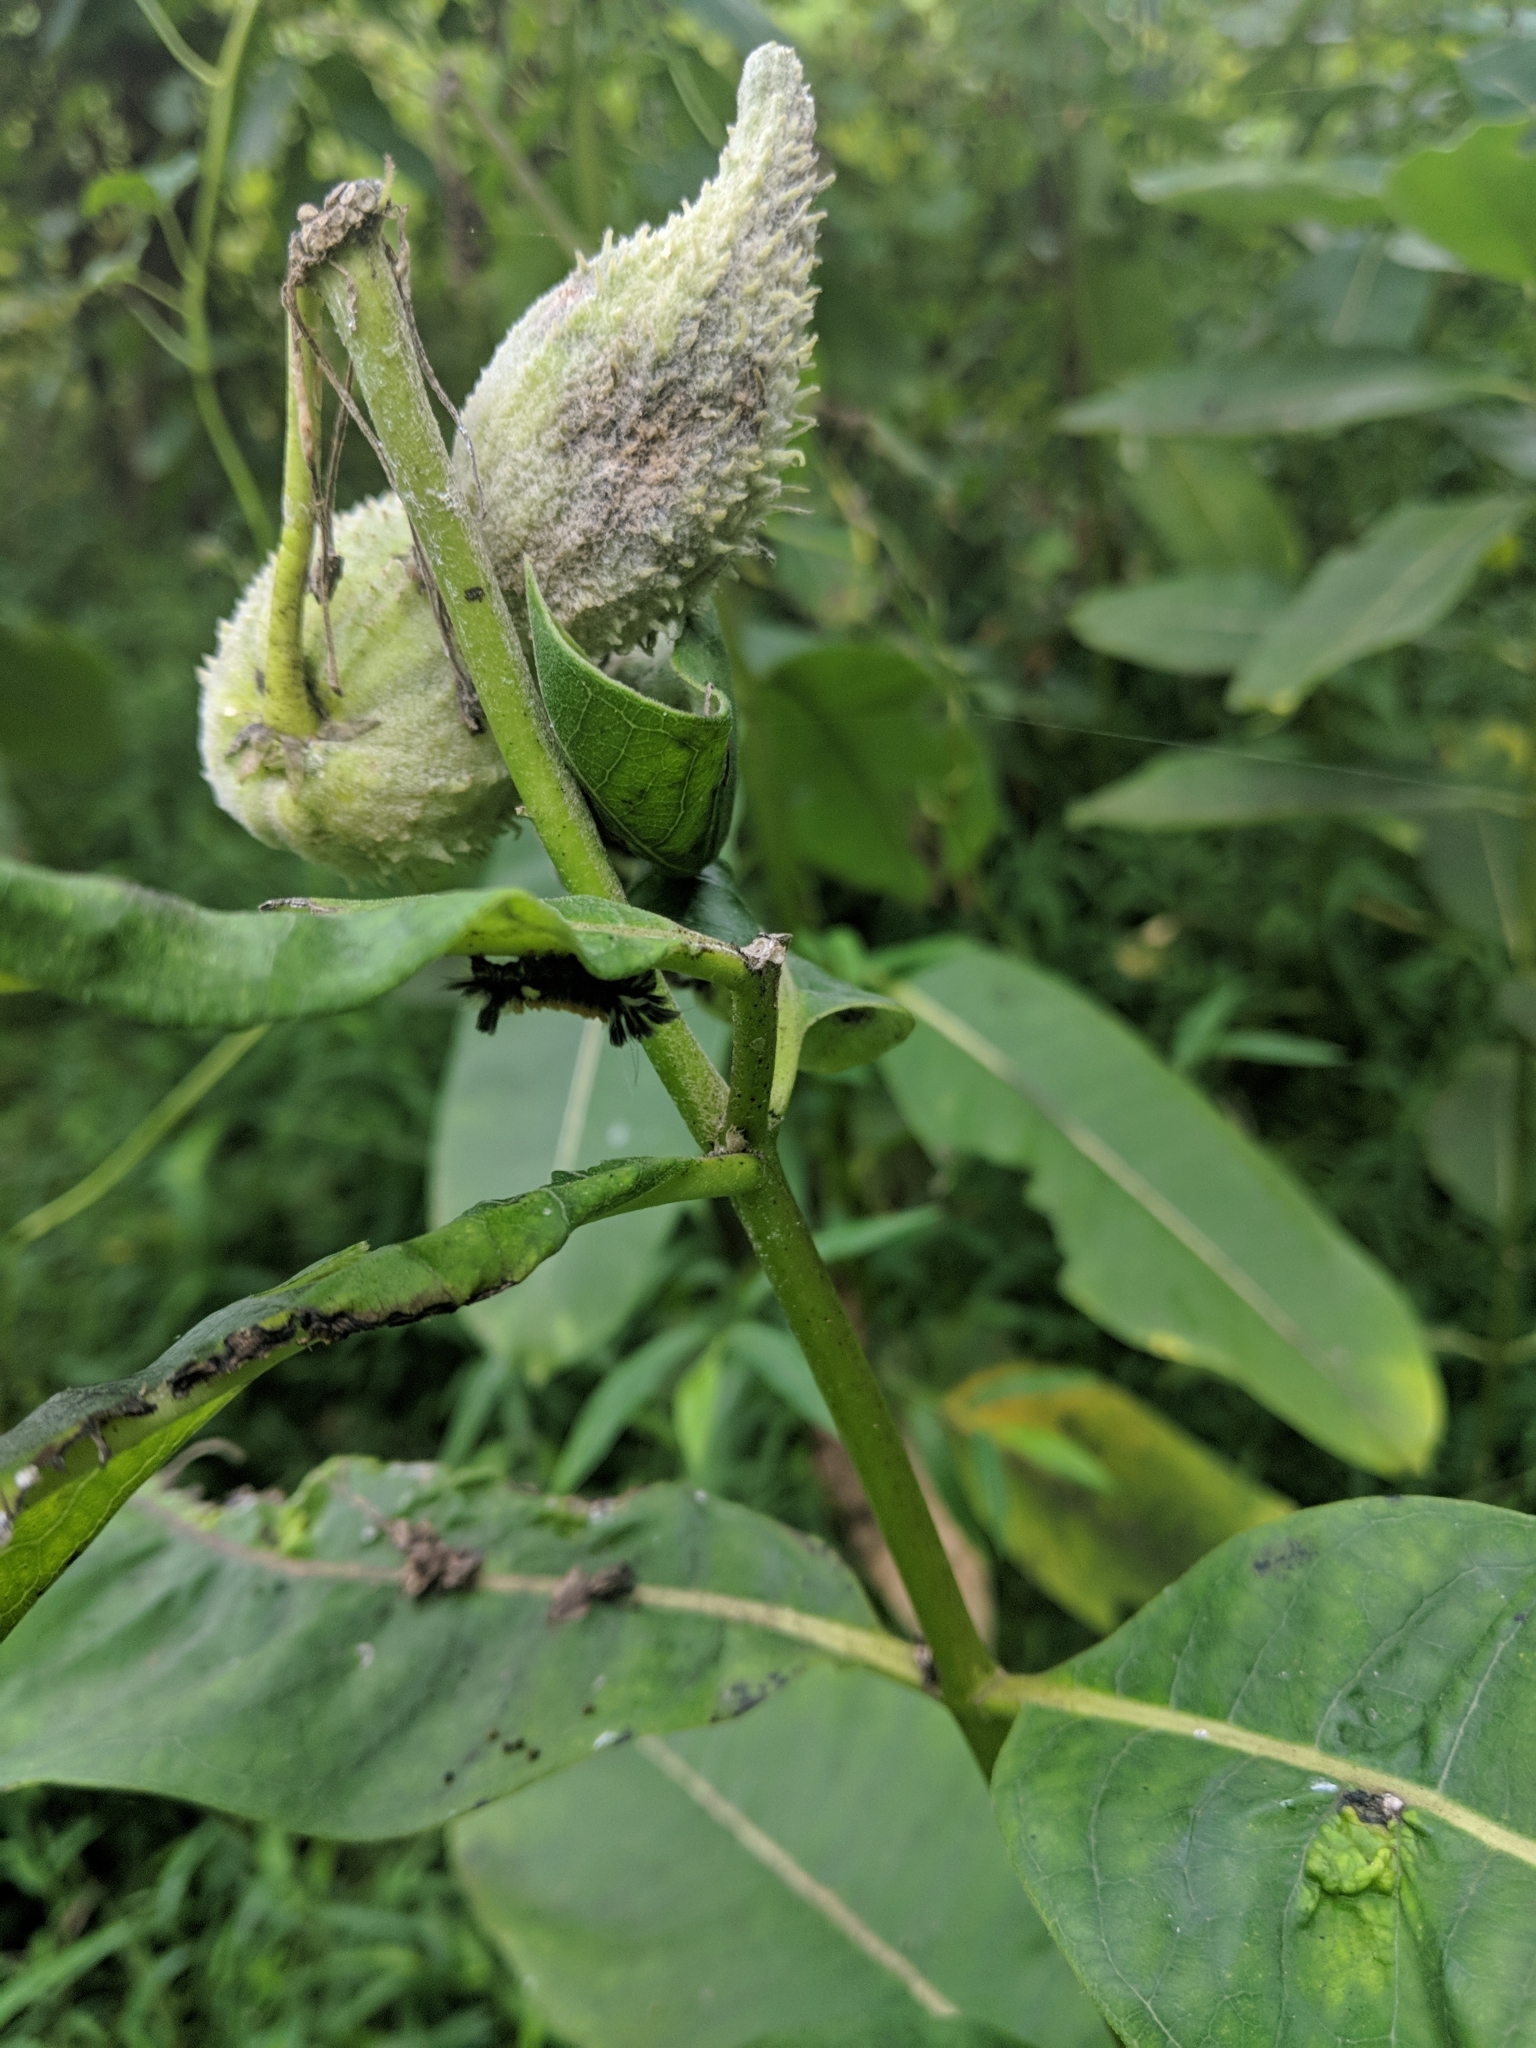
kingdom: Animalia
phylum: Arthropoda
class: Insecta
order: Lepidoptera
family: Erebidae
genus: Euchaetes
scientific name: Euchaetes egle
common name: Milkweed tussock moth
